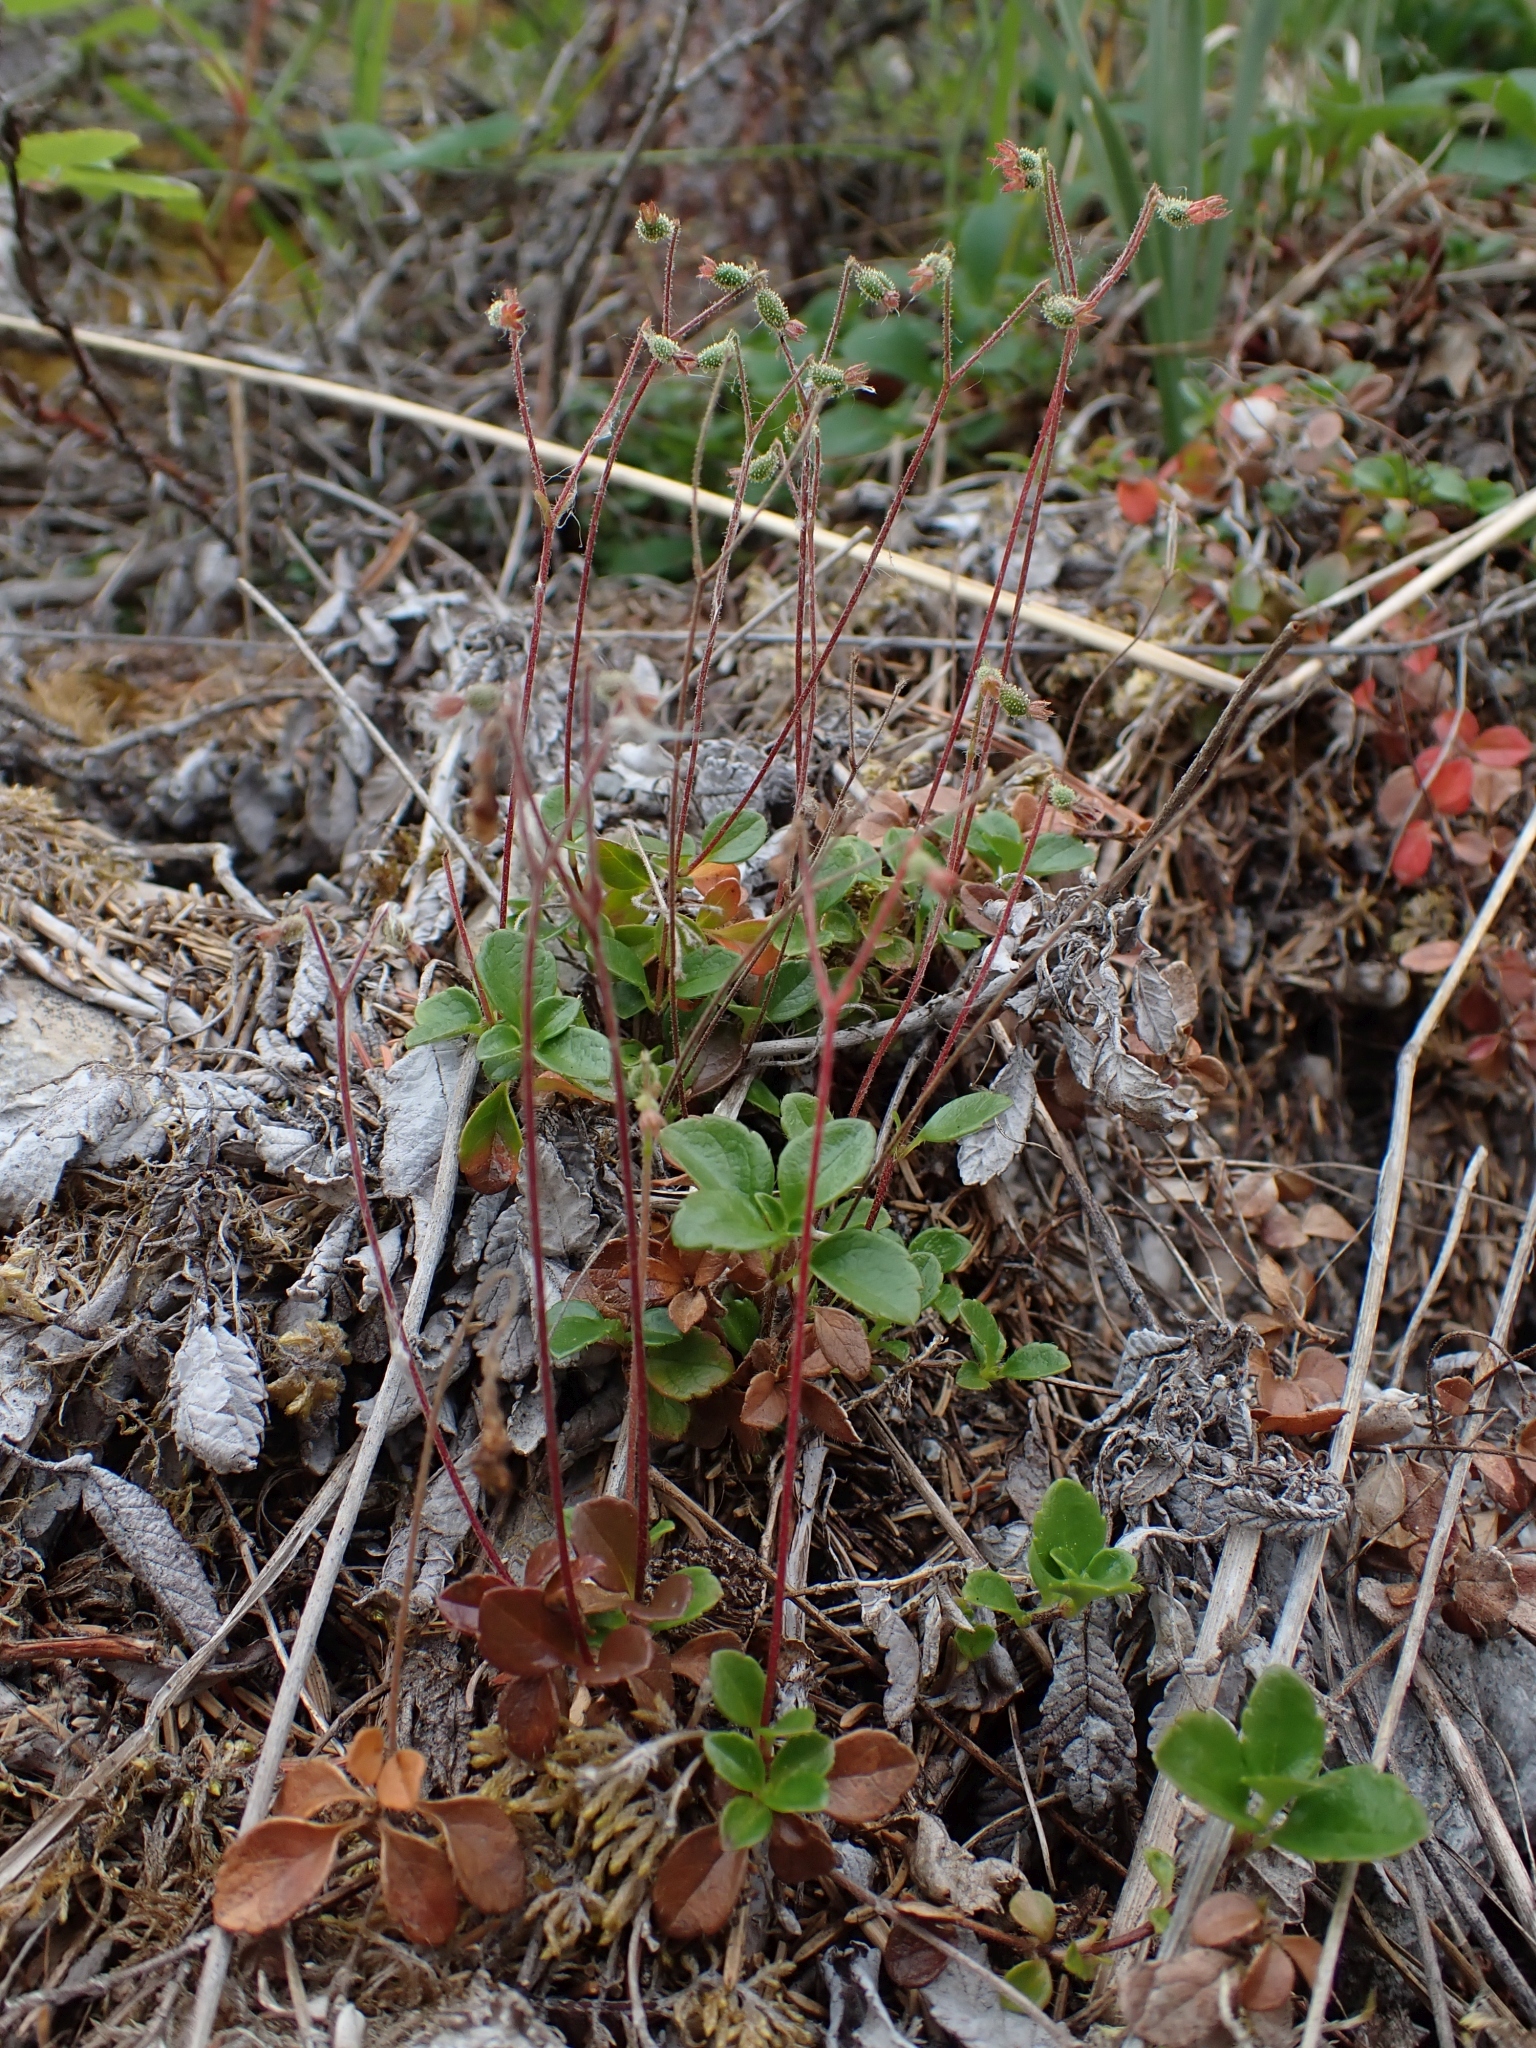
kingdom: Plantae
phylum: Tracheophyta
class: Magnoliopsida
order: Dipsacales
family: Caprifoliaceae
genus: Linnaea
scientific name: Linnaea borealis
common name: Twinflower
